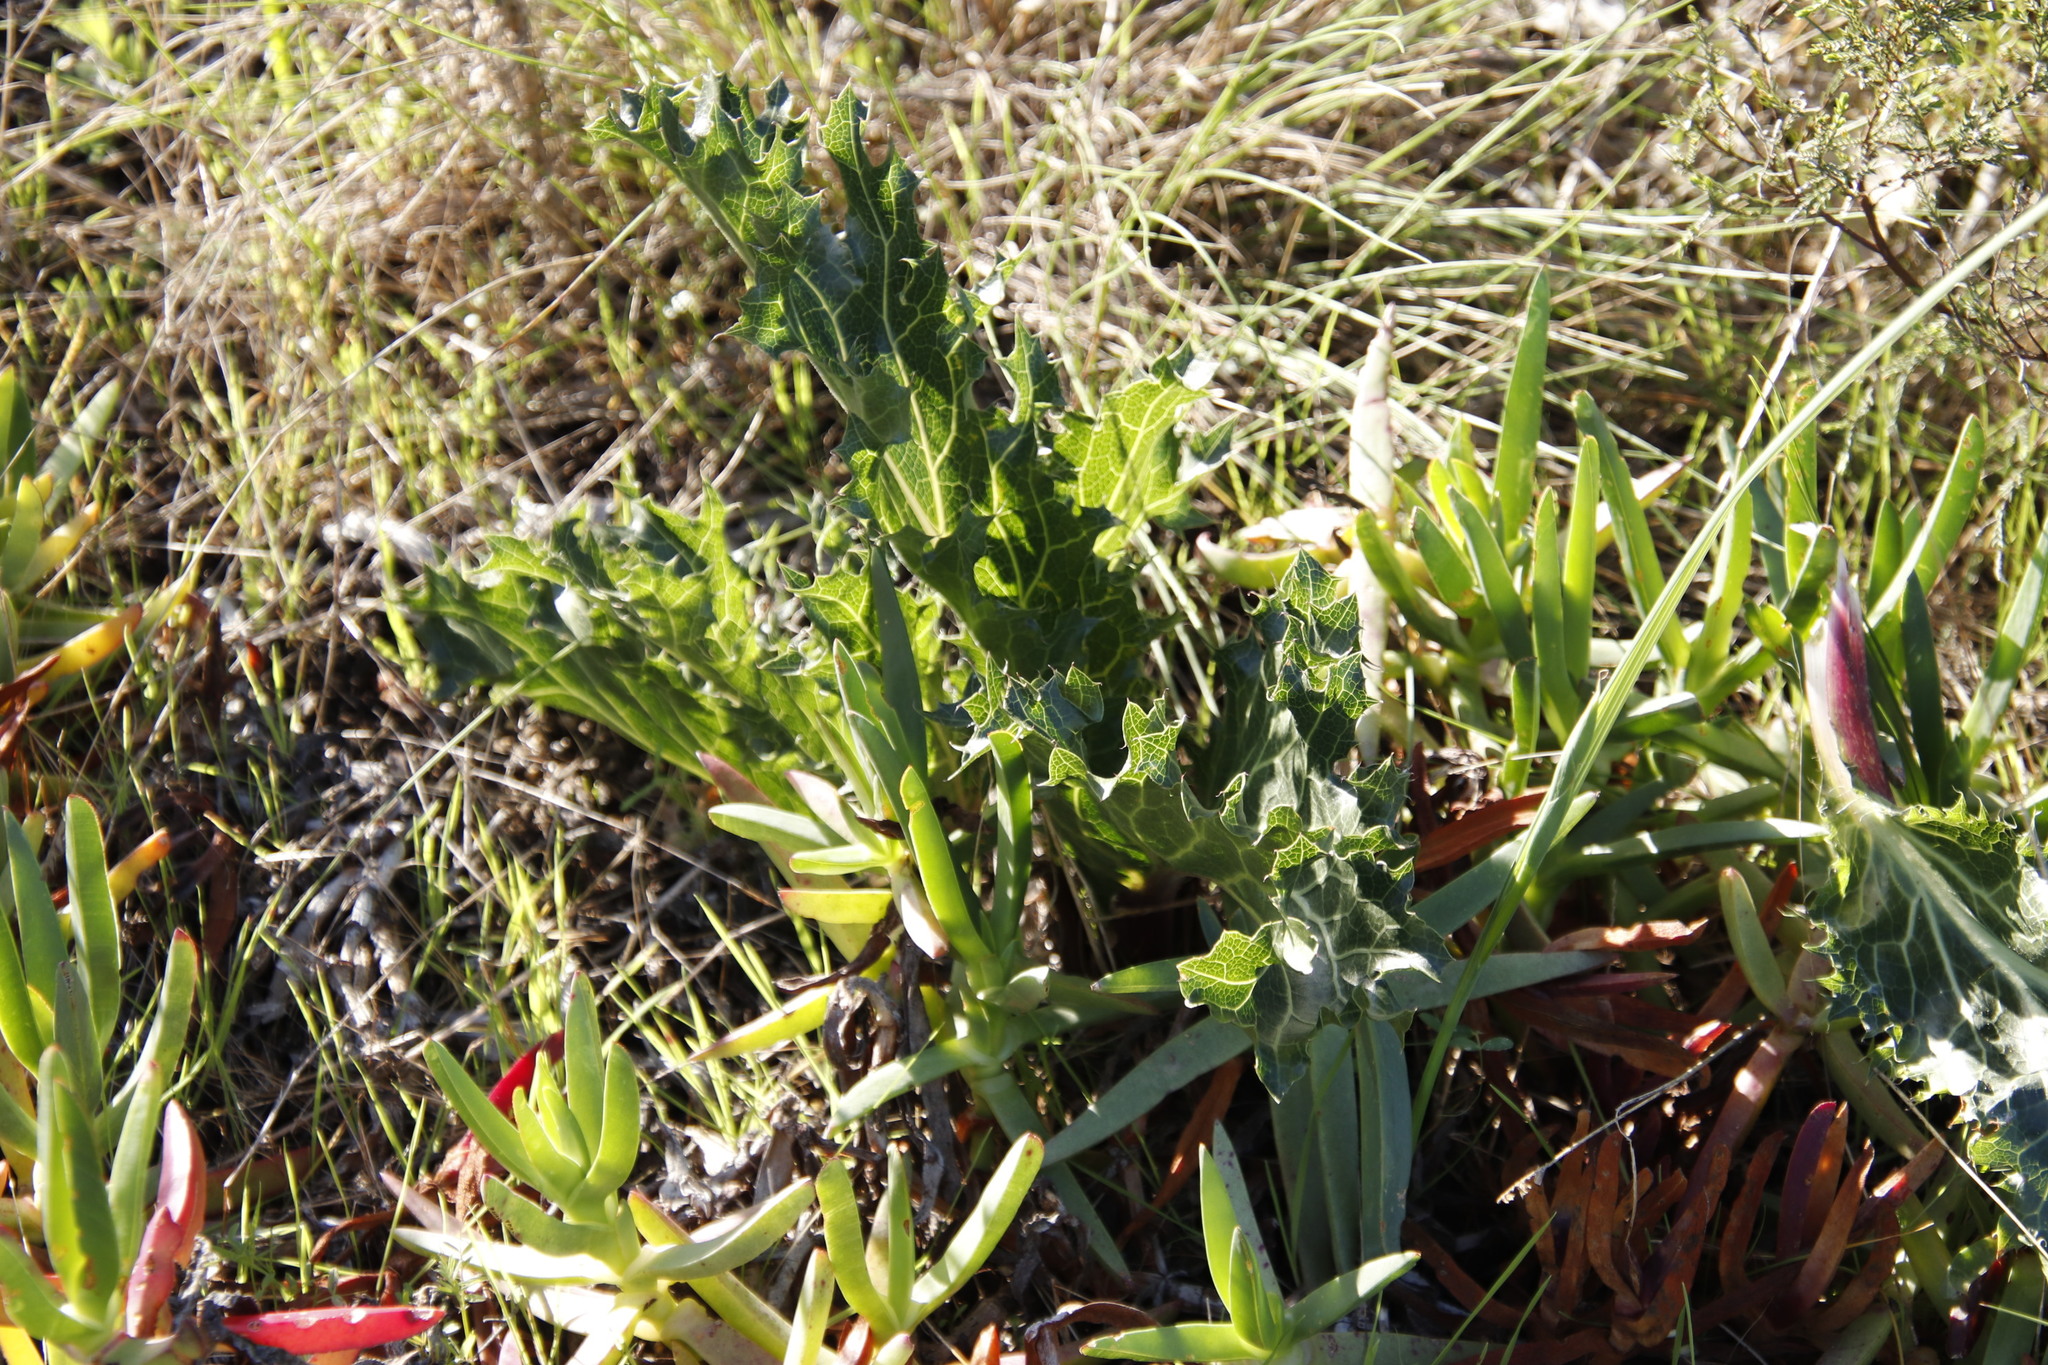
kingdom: Plantae
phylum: Tracheophyta
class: Magnoliopsida
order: Apiales
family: Apiaceae
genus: Lichtensteinia
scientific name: Lichtensteinia lacera
